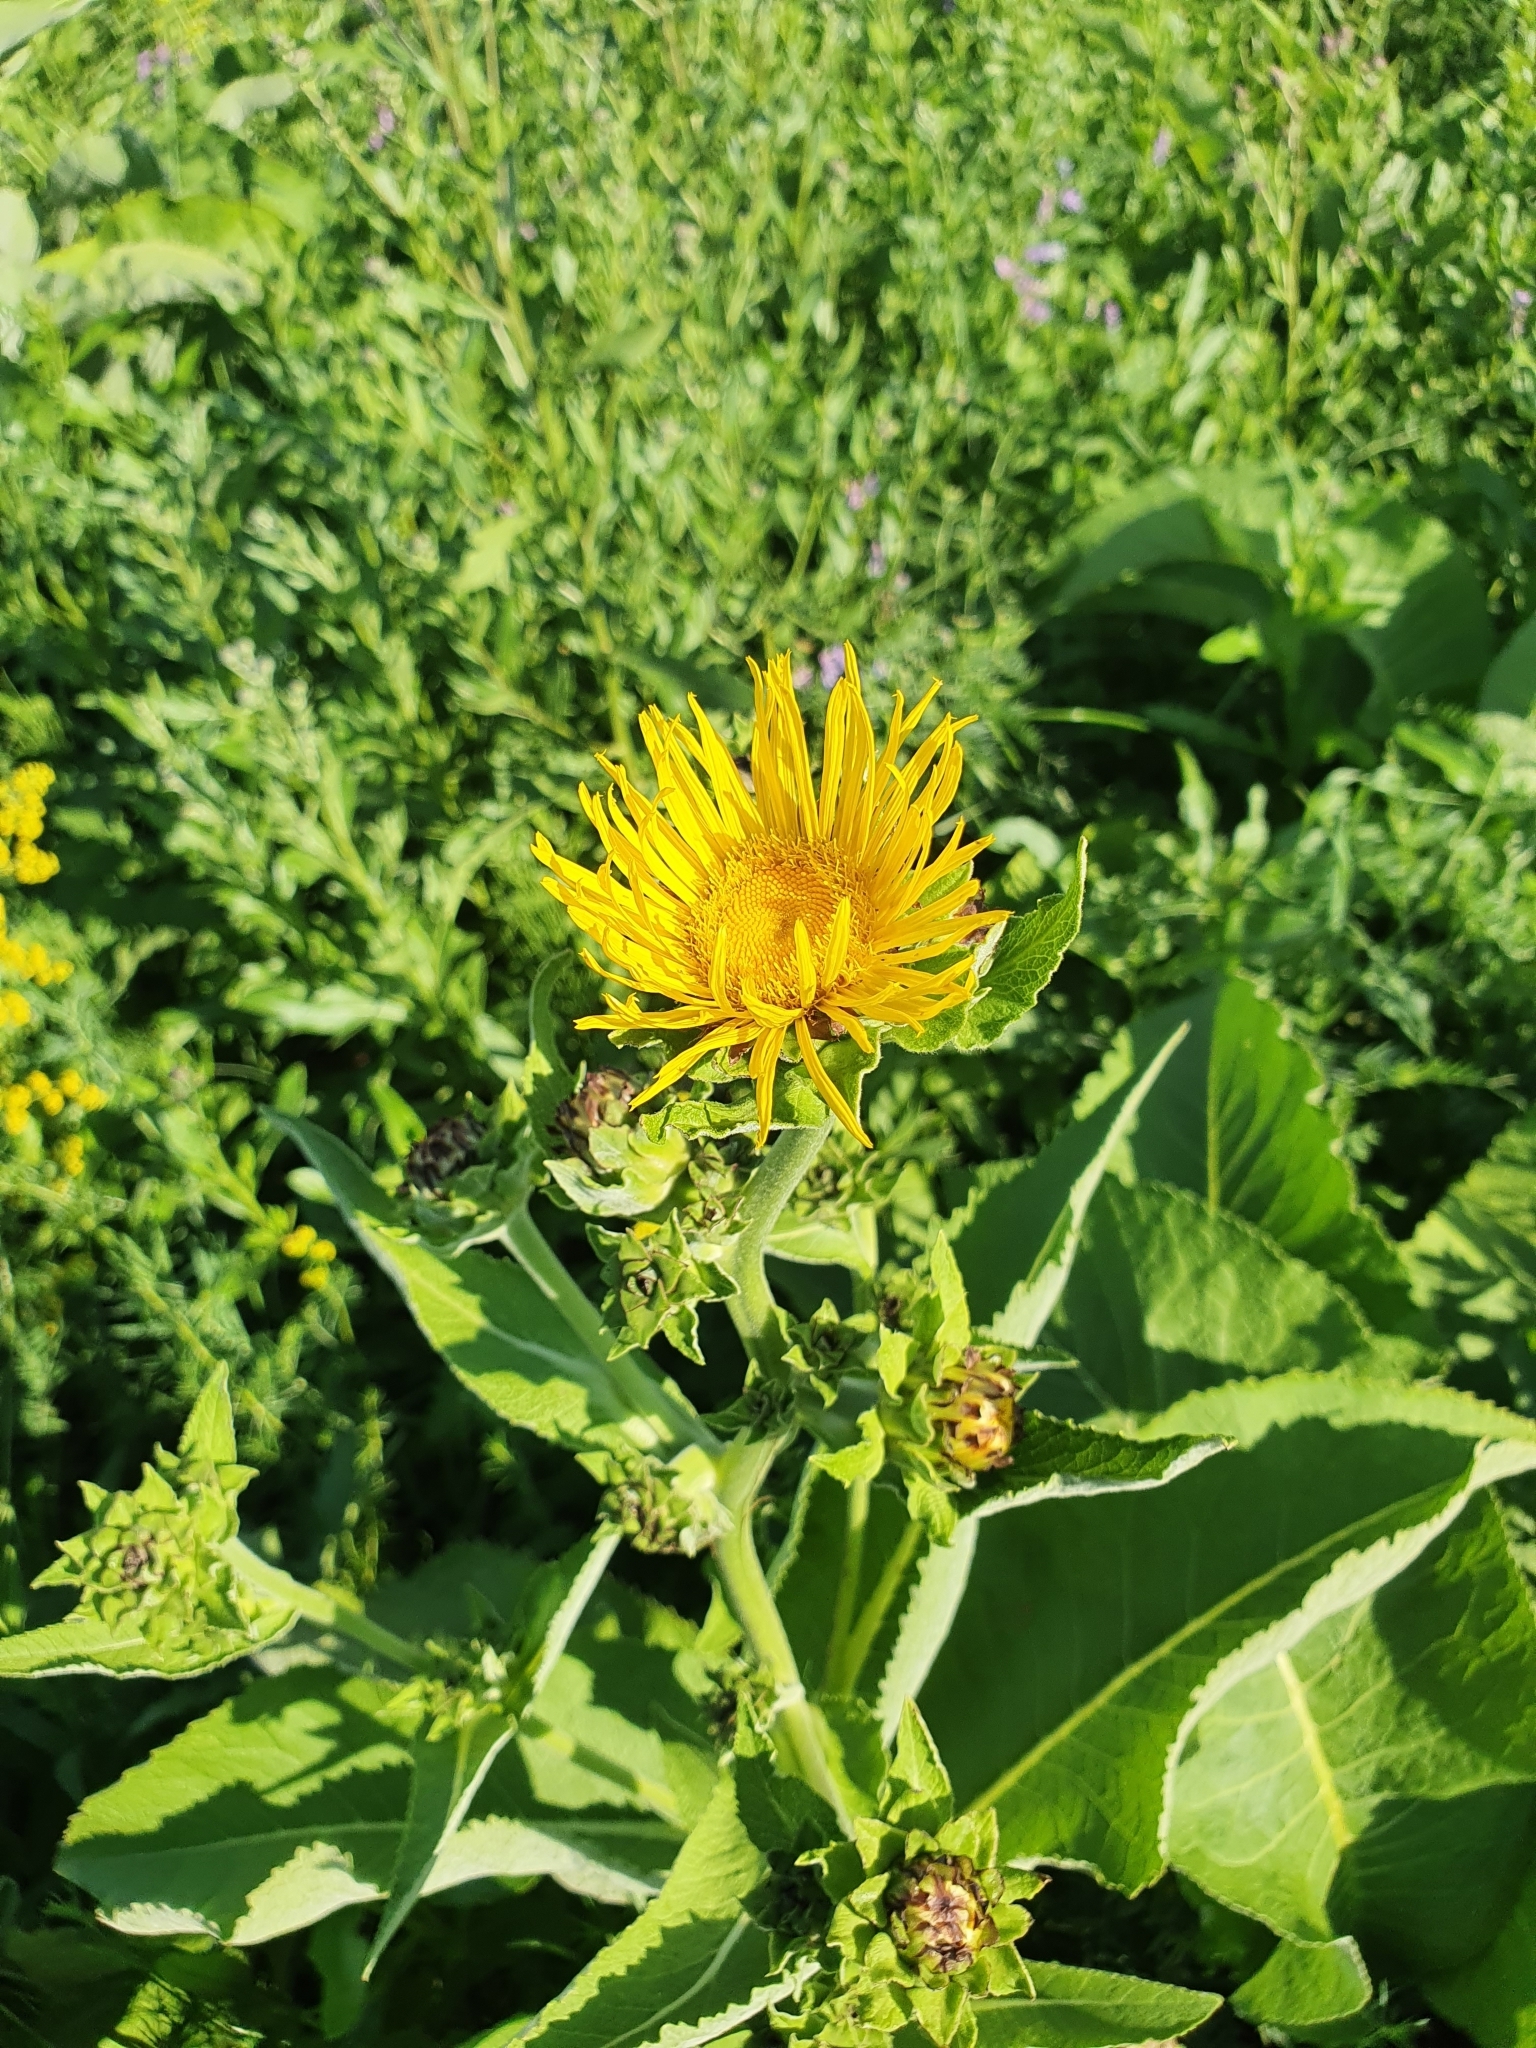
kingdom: Plantae
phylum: Tracheophyta
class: Magnoliopsida
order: Asterales
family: Asteraceae
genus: Inula
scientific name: Inula helenium
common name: Elecampane
